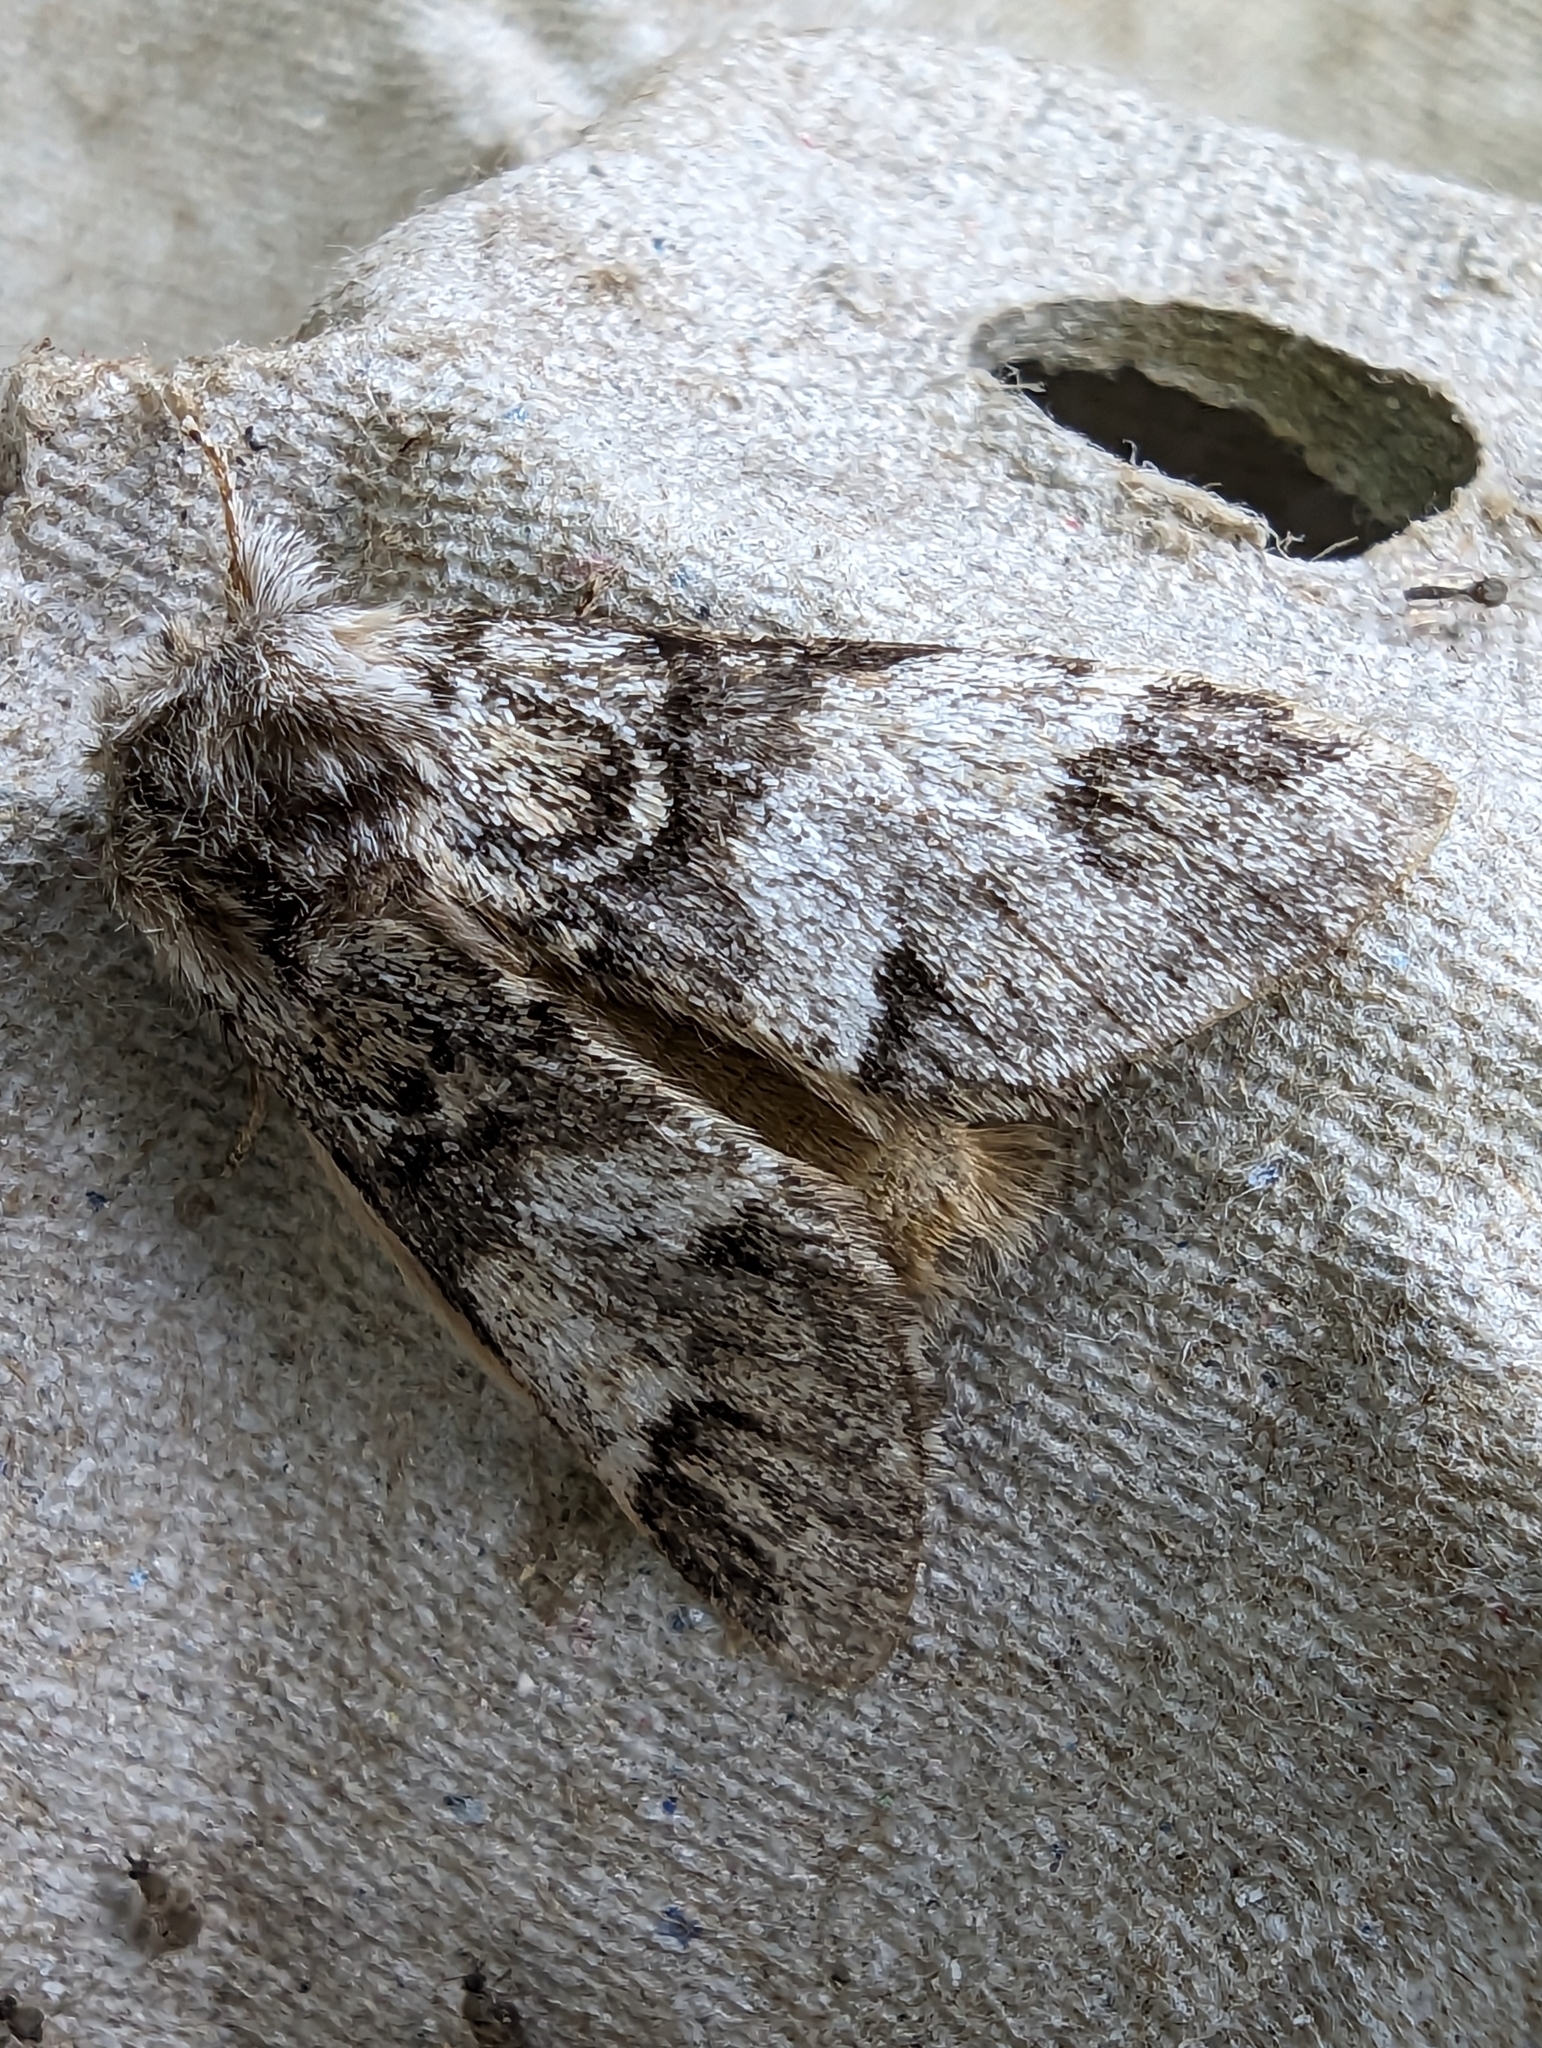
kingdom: Animalia
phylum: Arthropoda
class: Insecta
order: Lepidoptera
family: Notodontidae
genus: Drymonia
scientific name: Drymonia dodonaea
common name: Marbled brown
